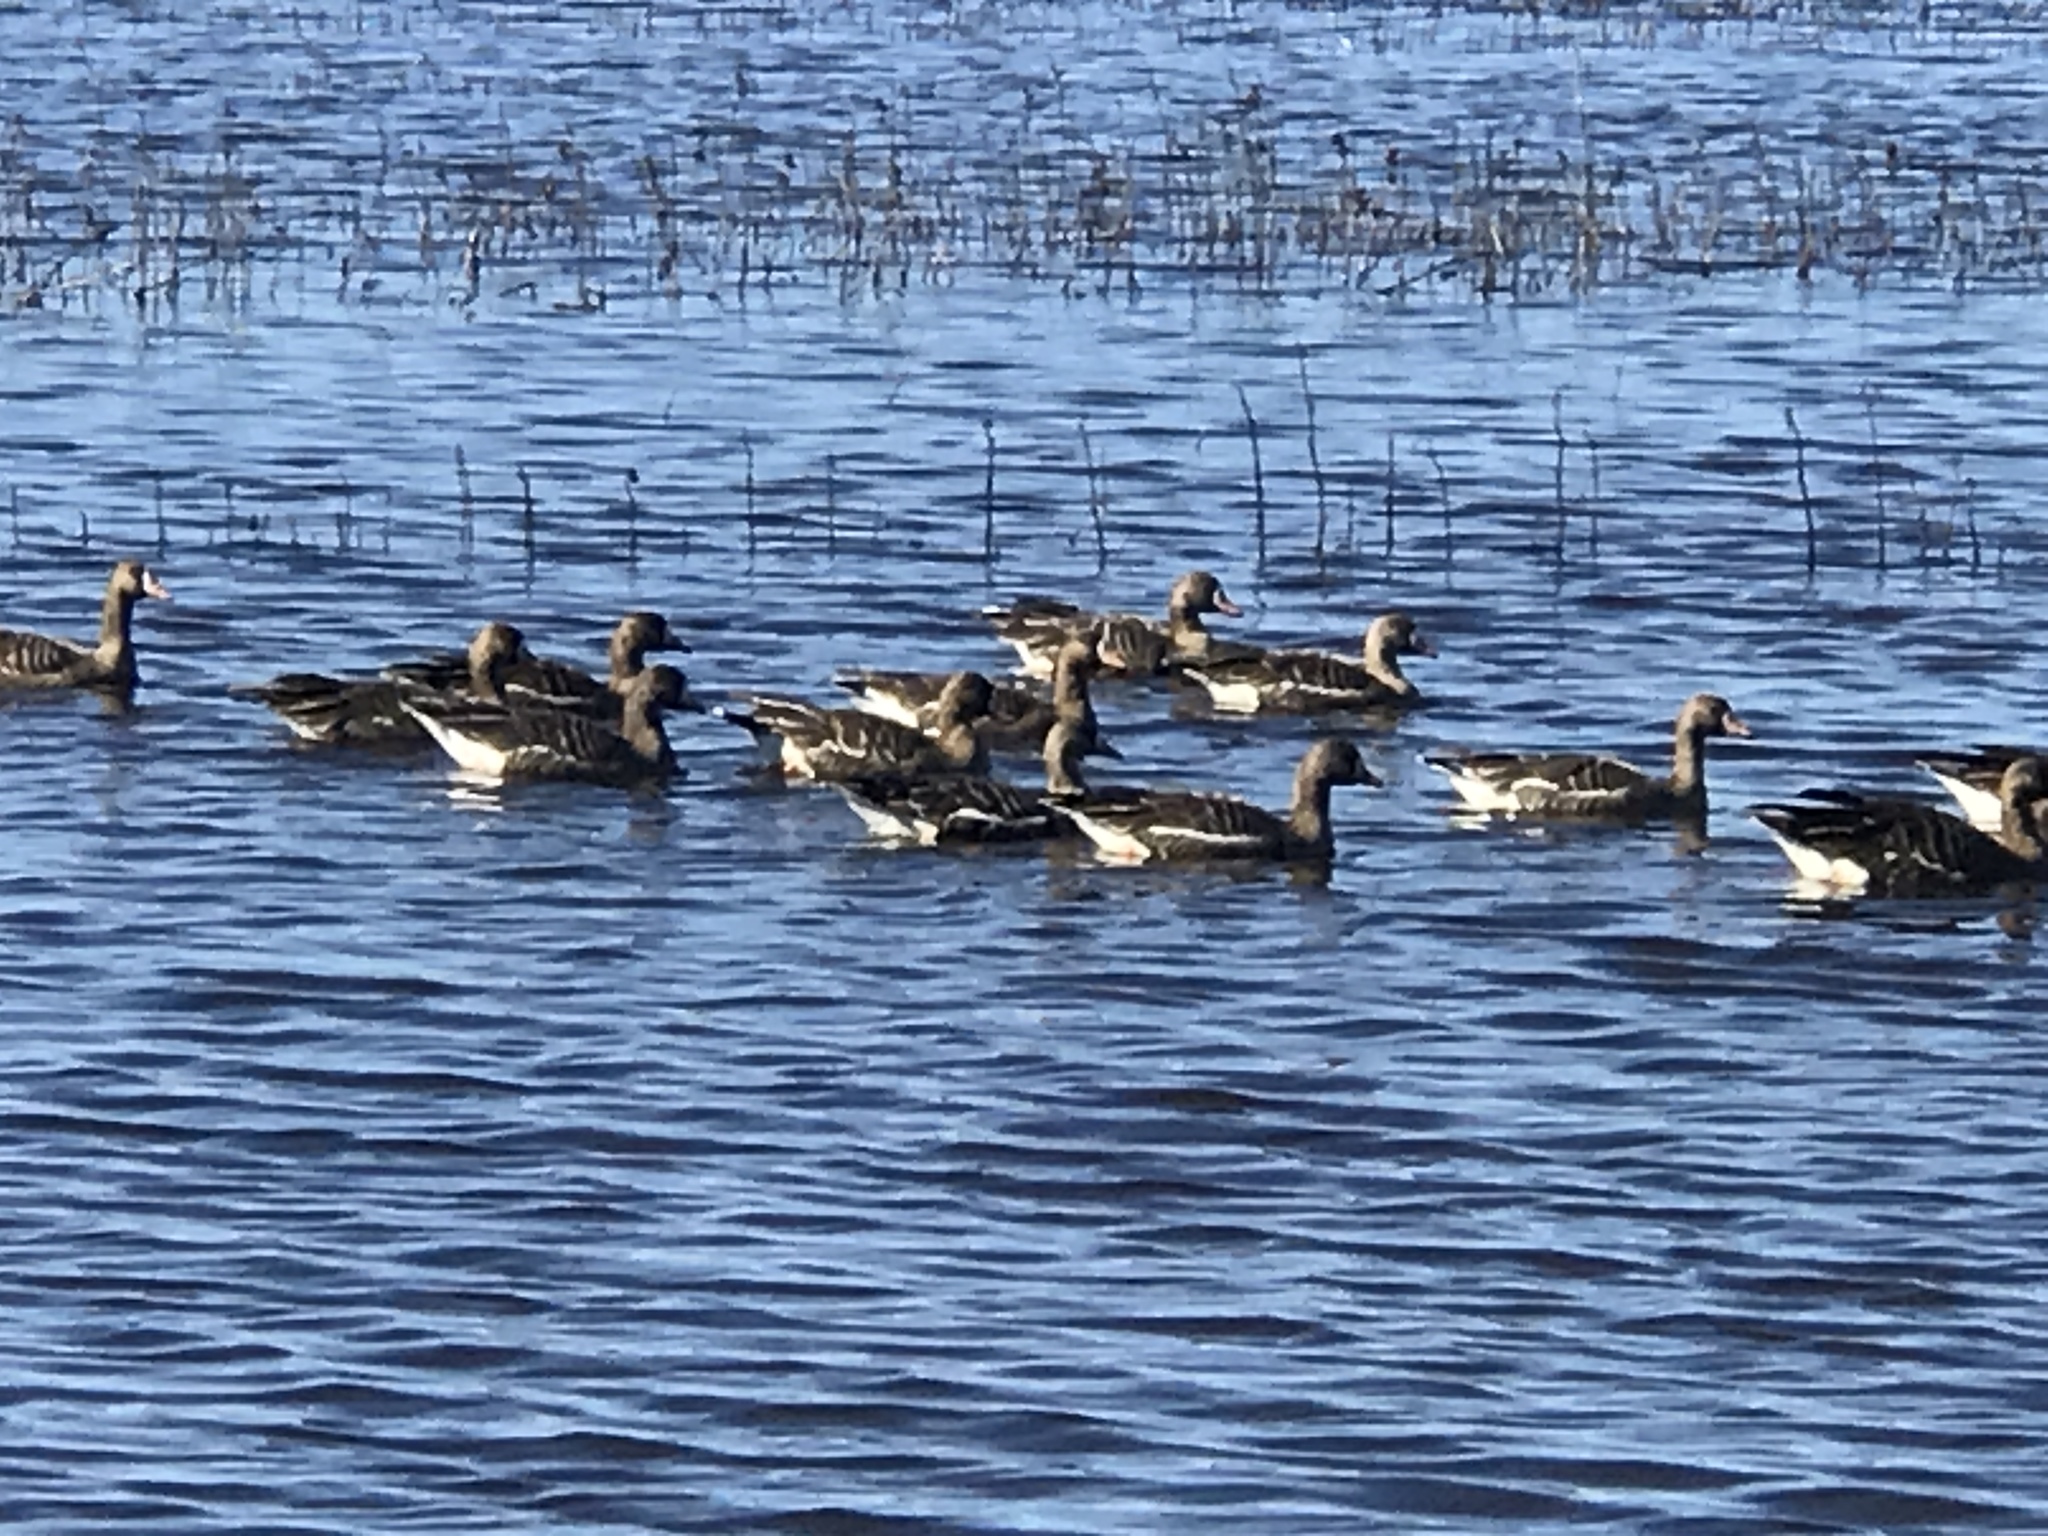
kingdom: Animalia
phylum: Chordata
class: Aves
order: Anseriformes
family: Anatidae
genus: Anser
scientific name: Anser albifrons
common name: Greater white-fronted goose
